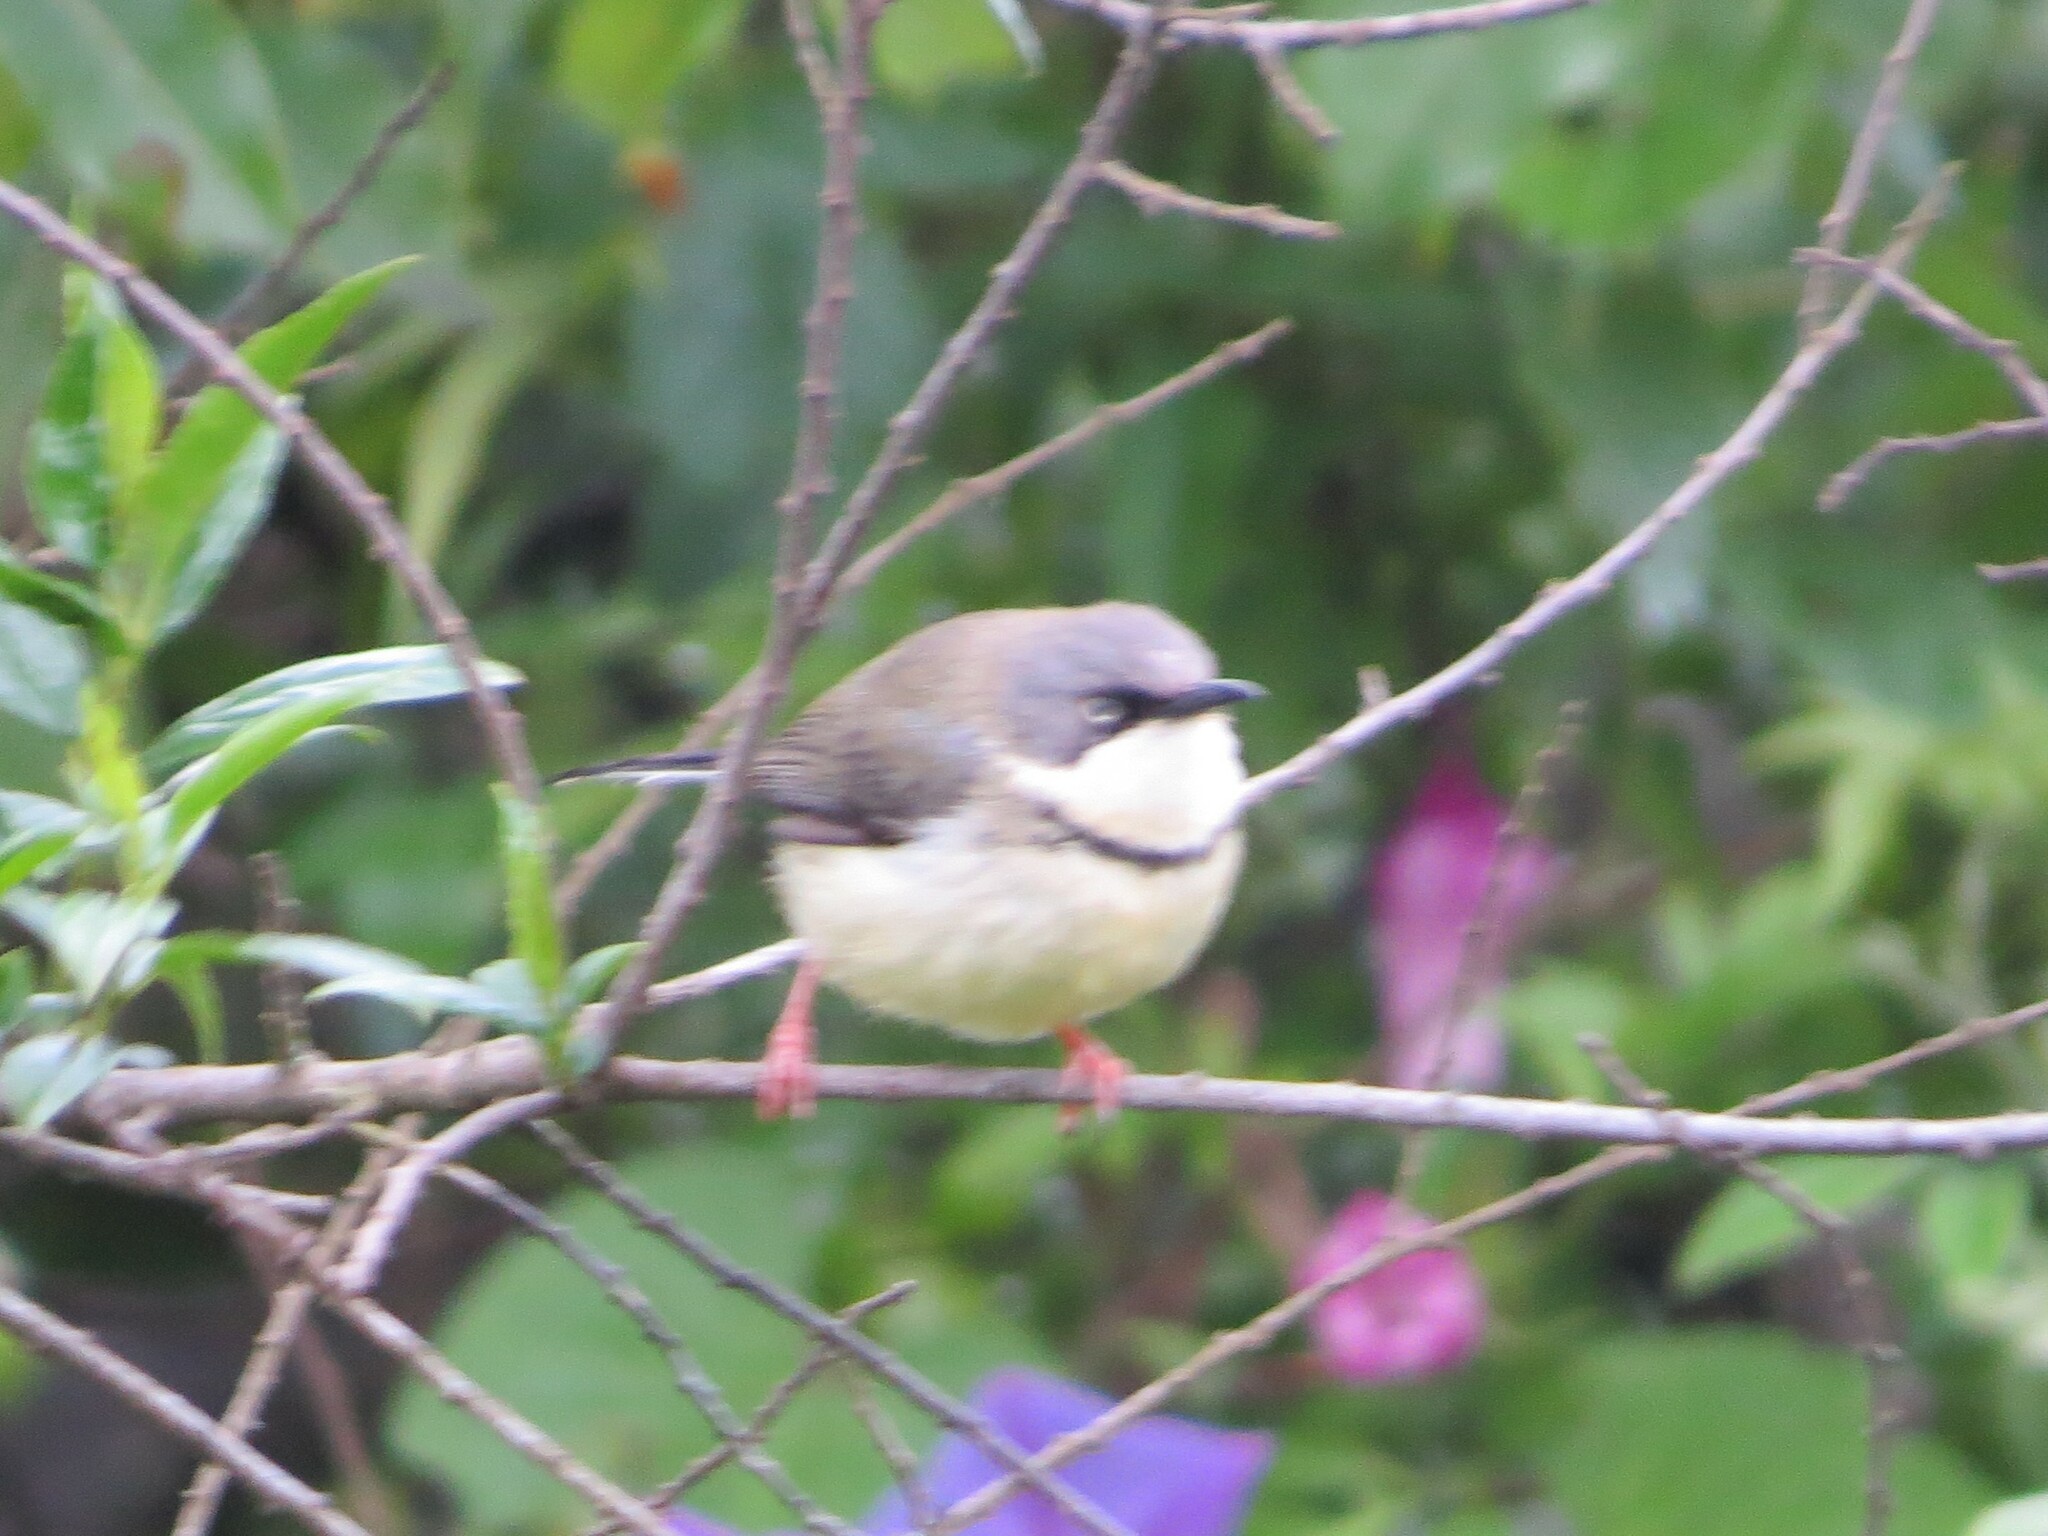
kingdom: Animalia
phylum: Chordata
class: Aves
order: Passeriformes
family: Cisticolidae
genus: Apalis
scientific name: Apalis thoracica
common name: Bar-throated apalis
